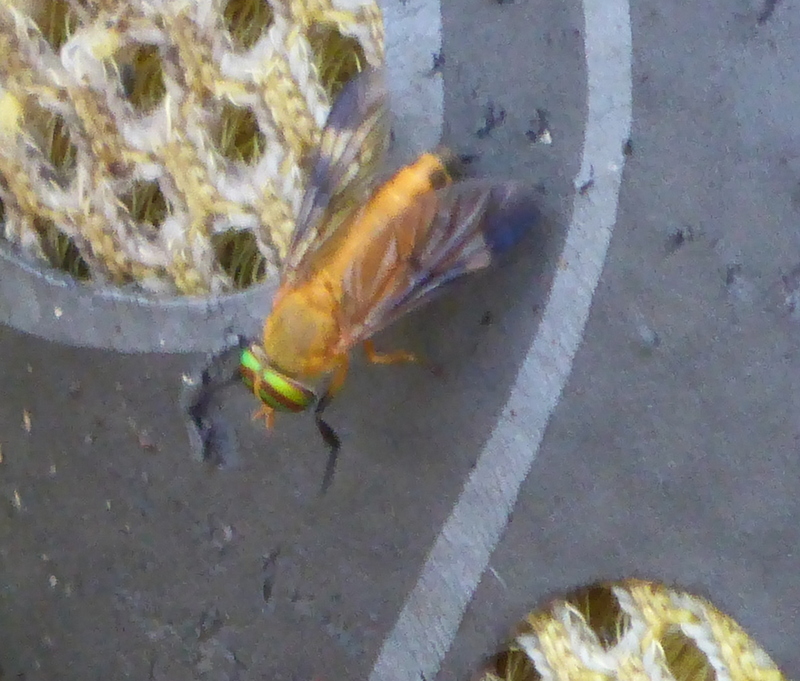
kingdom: Animalia
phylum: Arthropoda
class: Insecta
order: Diptera
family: Tabanidae
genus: Diachlorus
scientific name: Diachlorus ferrugatus
